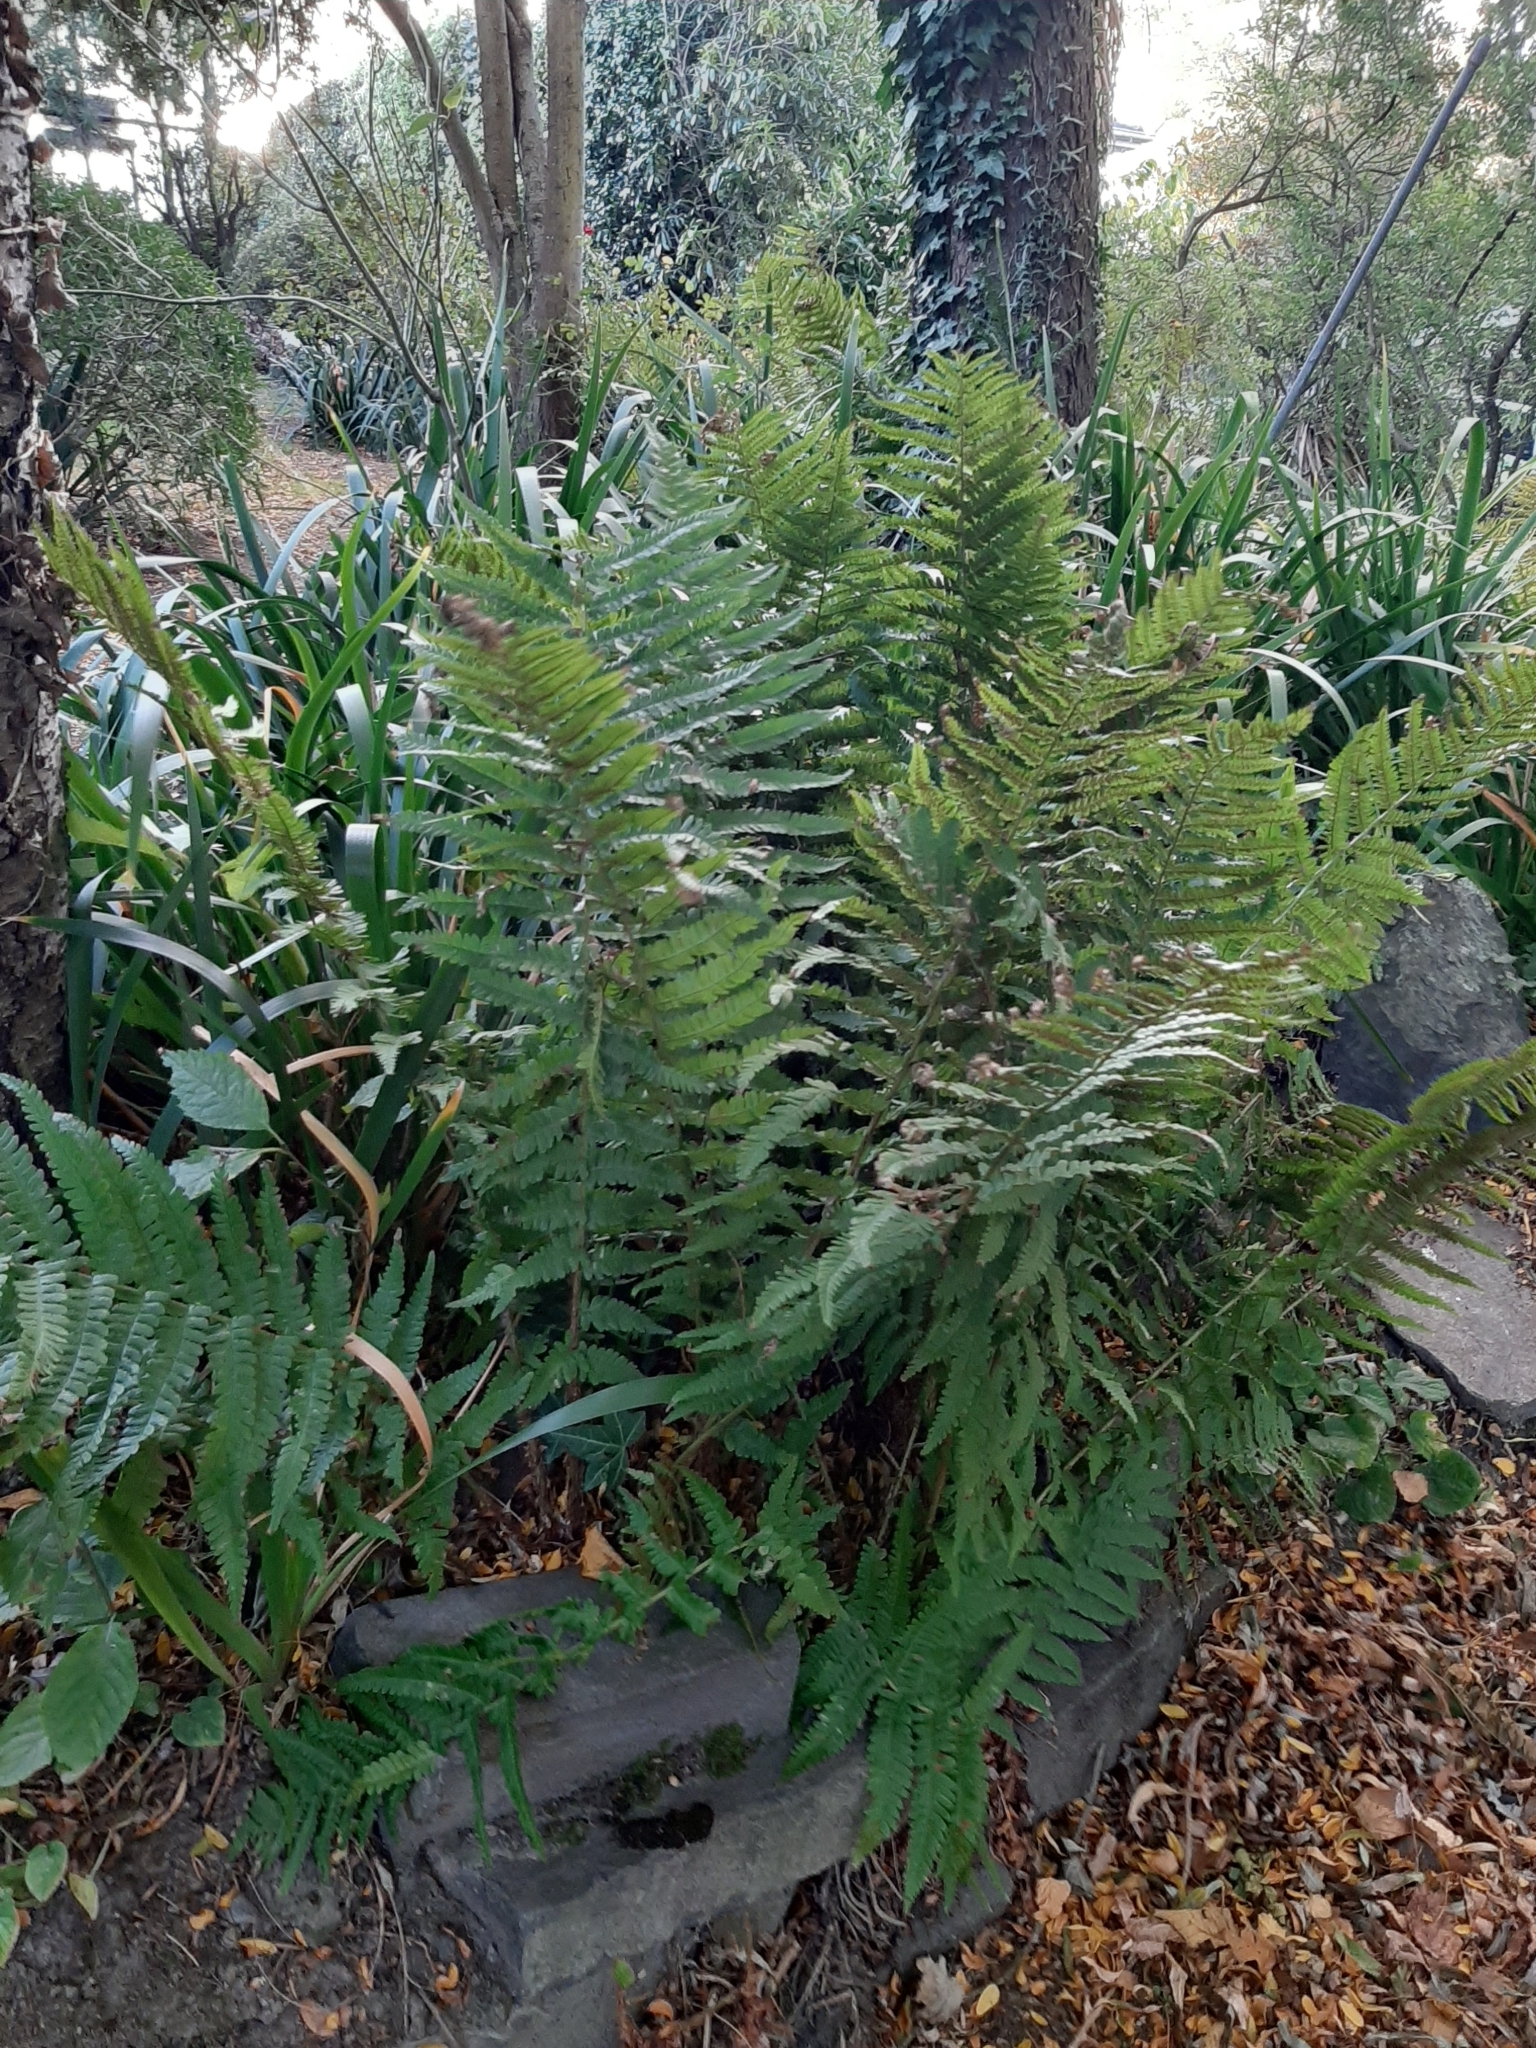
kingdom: Plantae
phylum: Tracheophyta
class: Polypodiopsida
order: Polypodiales
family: Dryopteridaceae
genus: Dryopteris
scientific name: Dryopteris filix-mas
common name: Male fern
